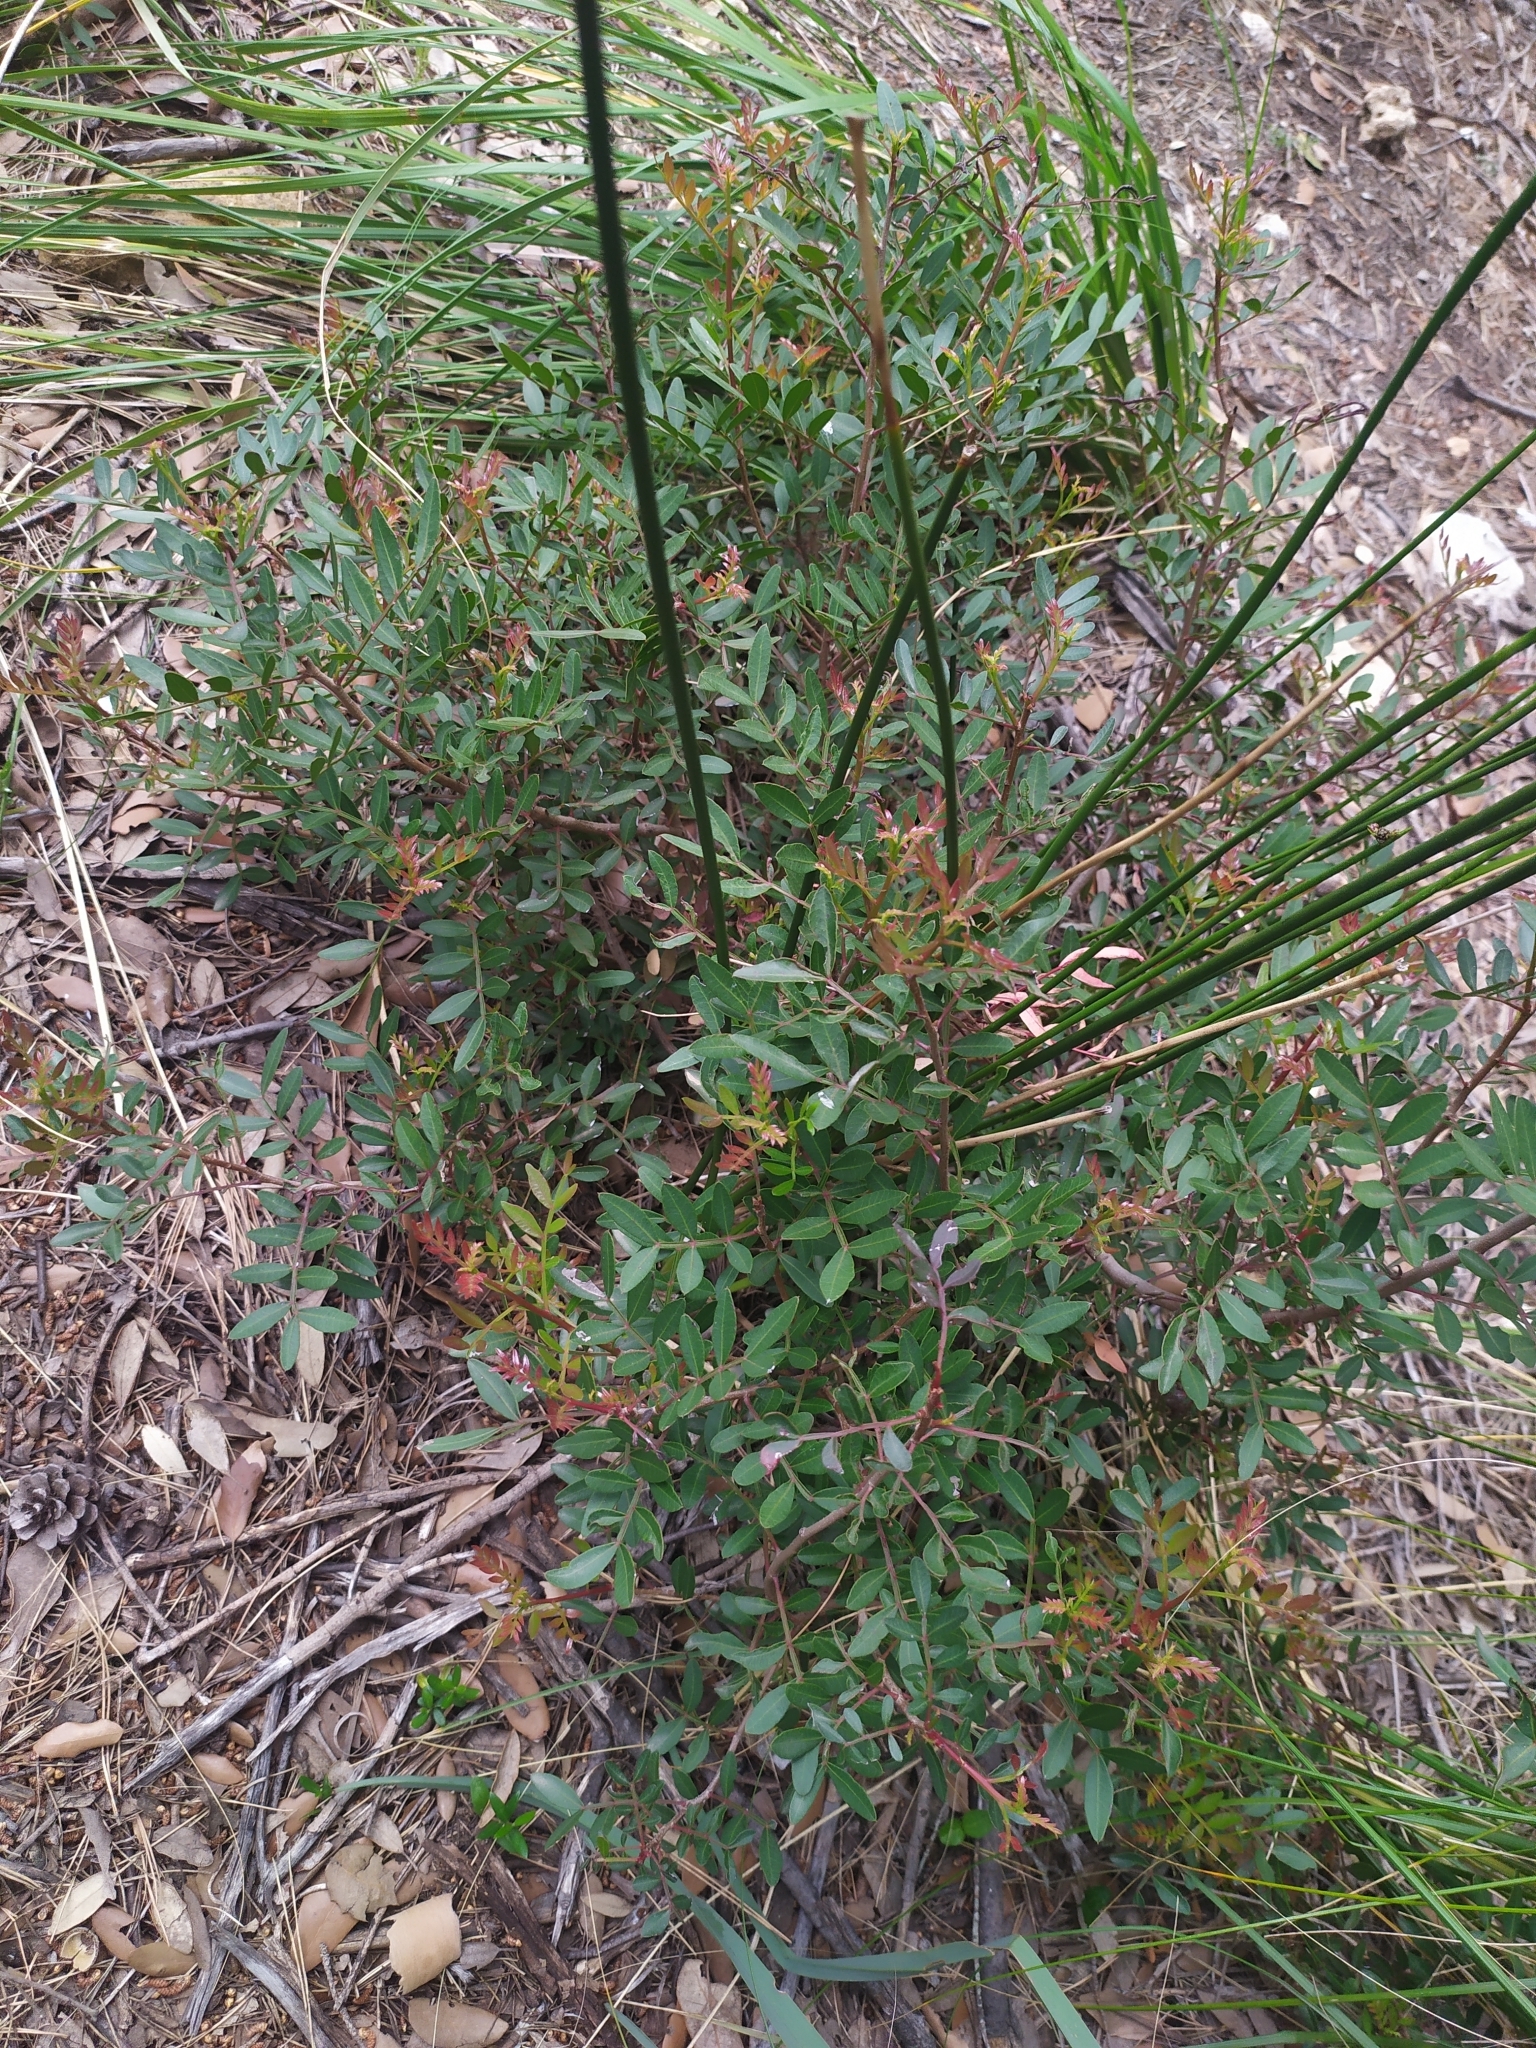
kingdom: Plantae
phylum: Tracheophyta
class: Magnoliopsida
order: Sapindales
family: Anacardiaceae
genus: Pistacia
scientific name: Pistacia lentiscus
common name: Lentisk
